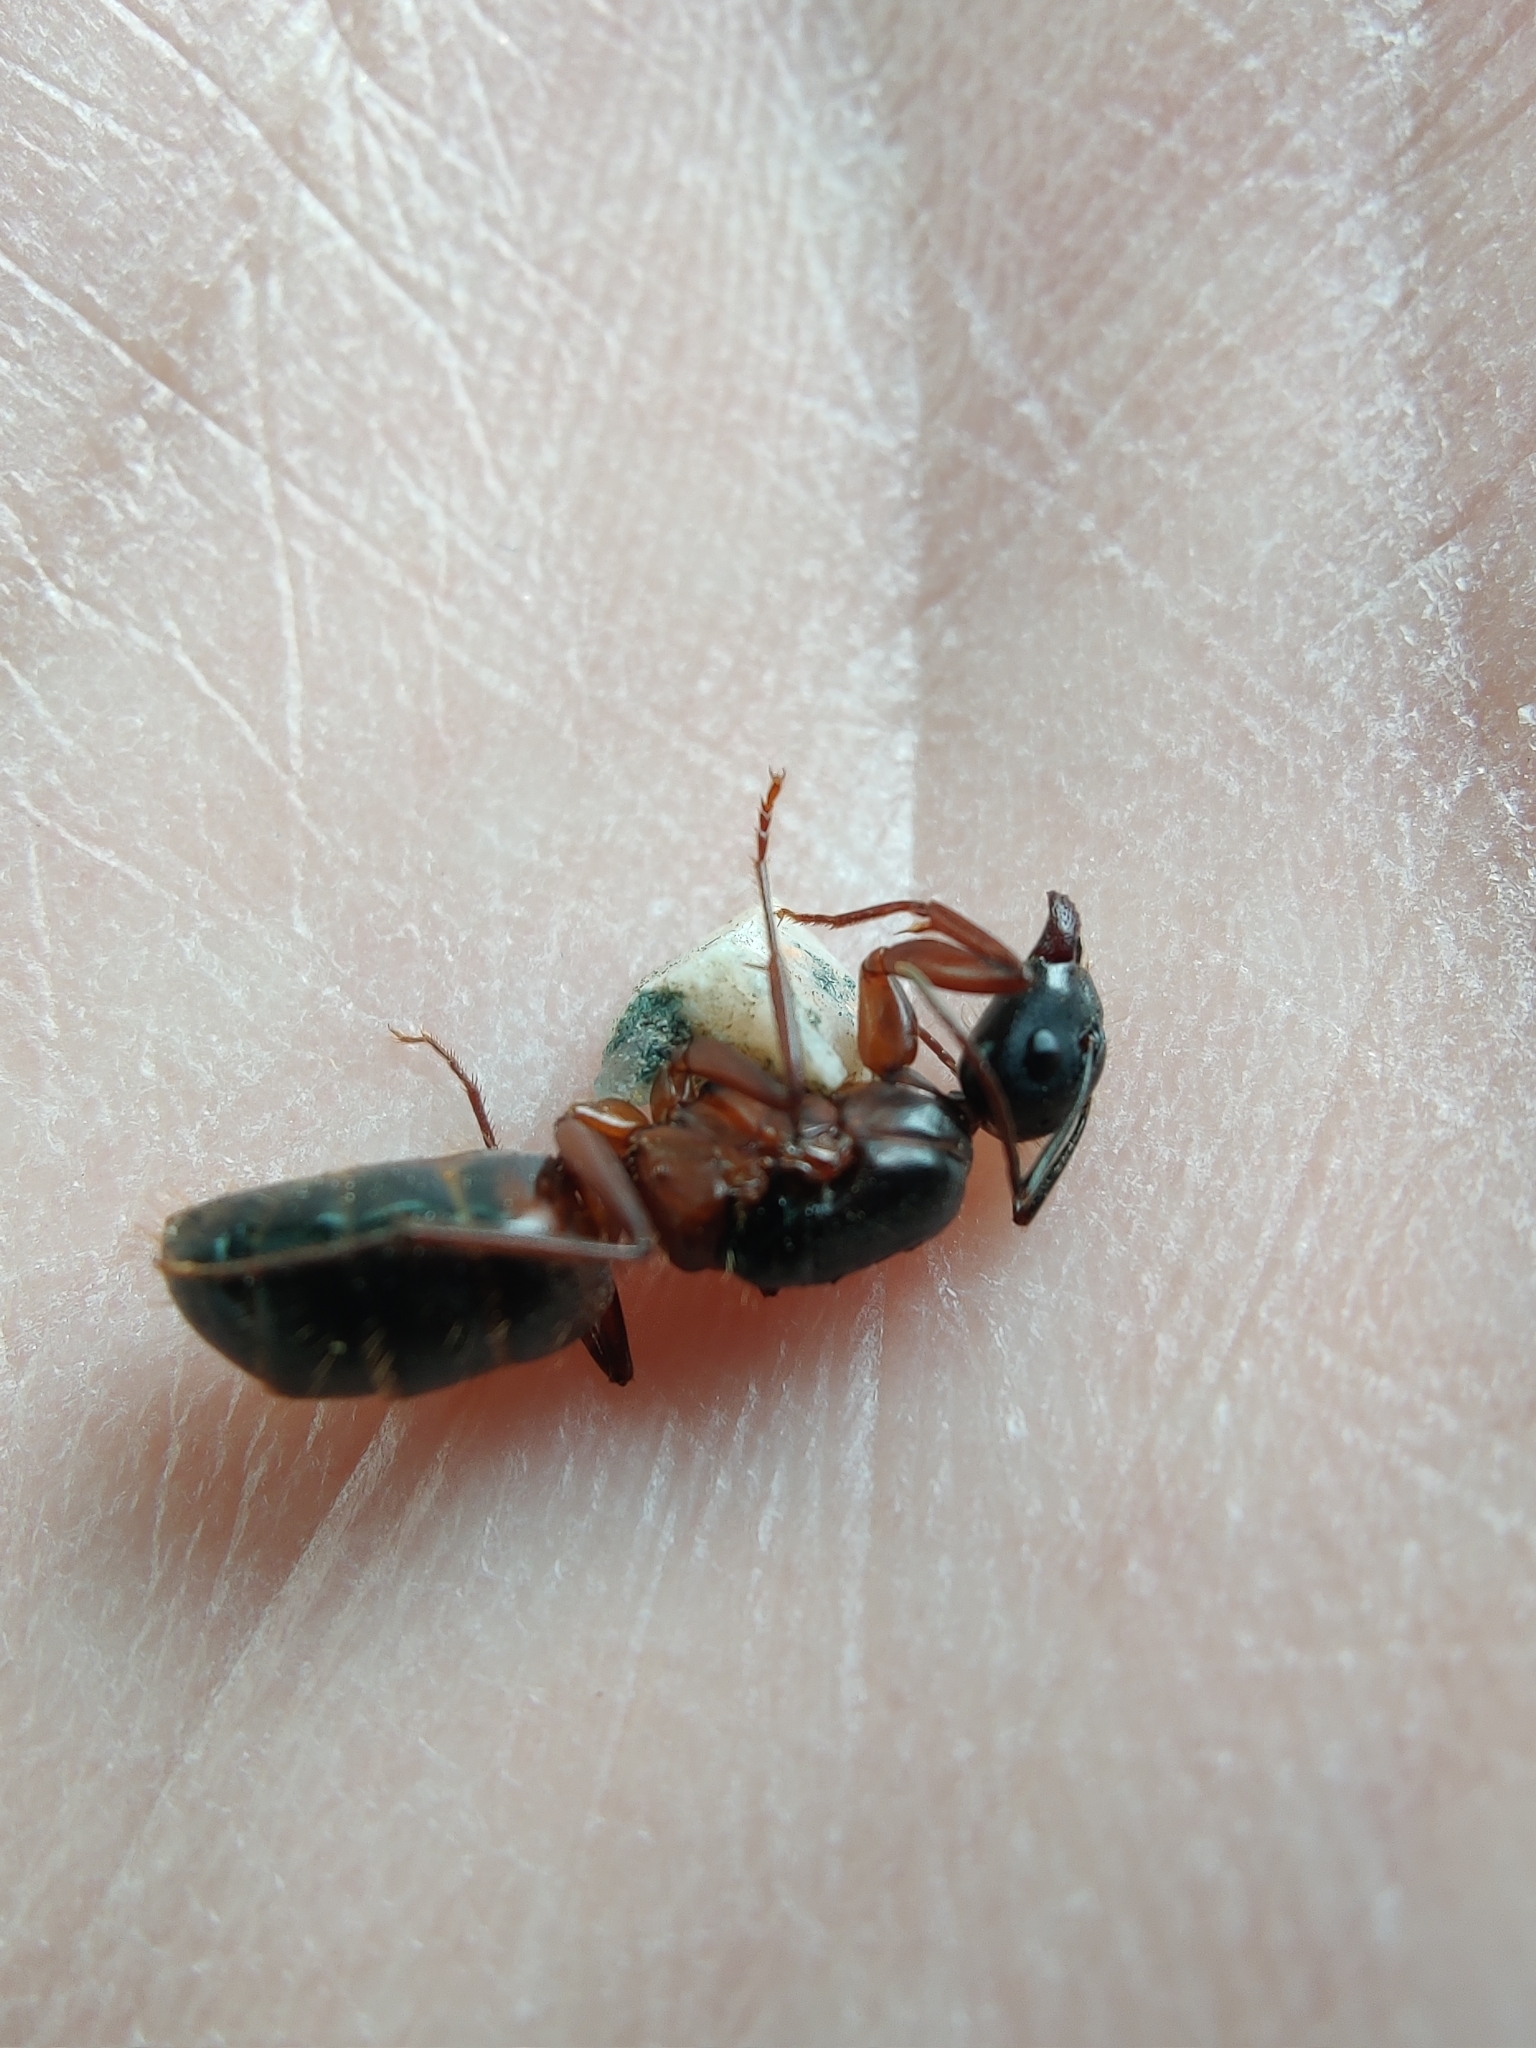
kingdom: Animalia
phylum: Arthropoda
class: Insecta
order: Hymenoptera
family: Formicidae
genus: Camponotus
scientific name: Camponotus vicinus
